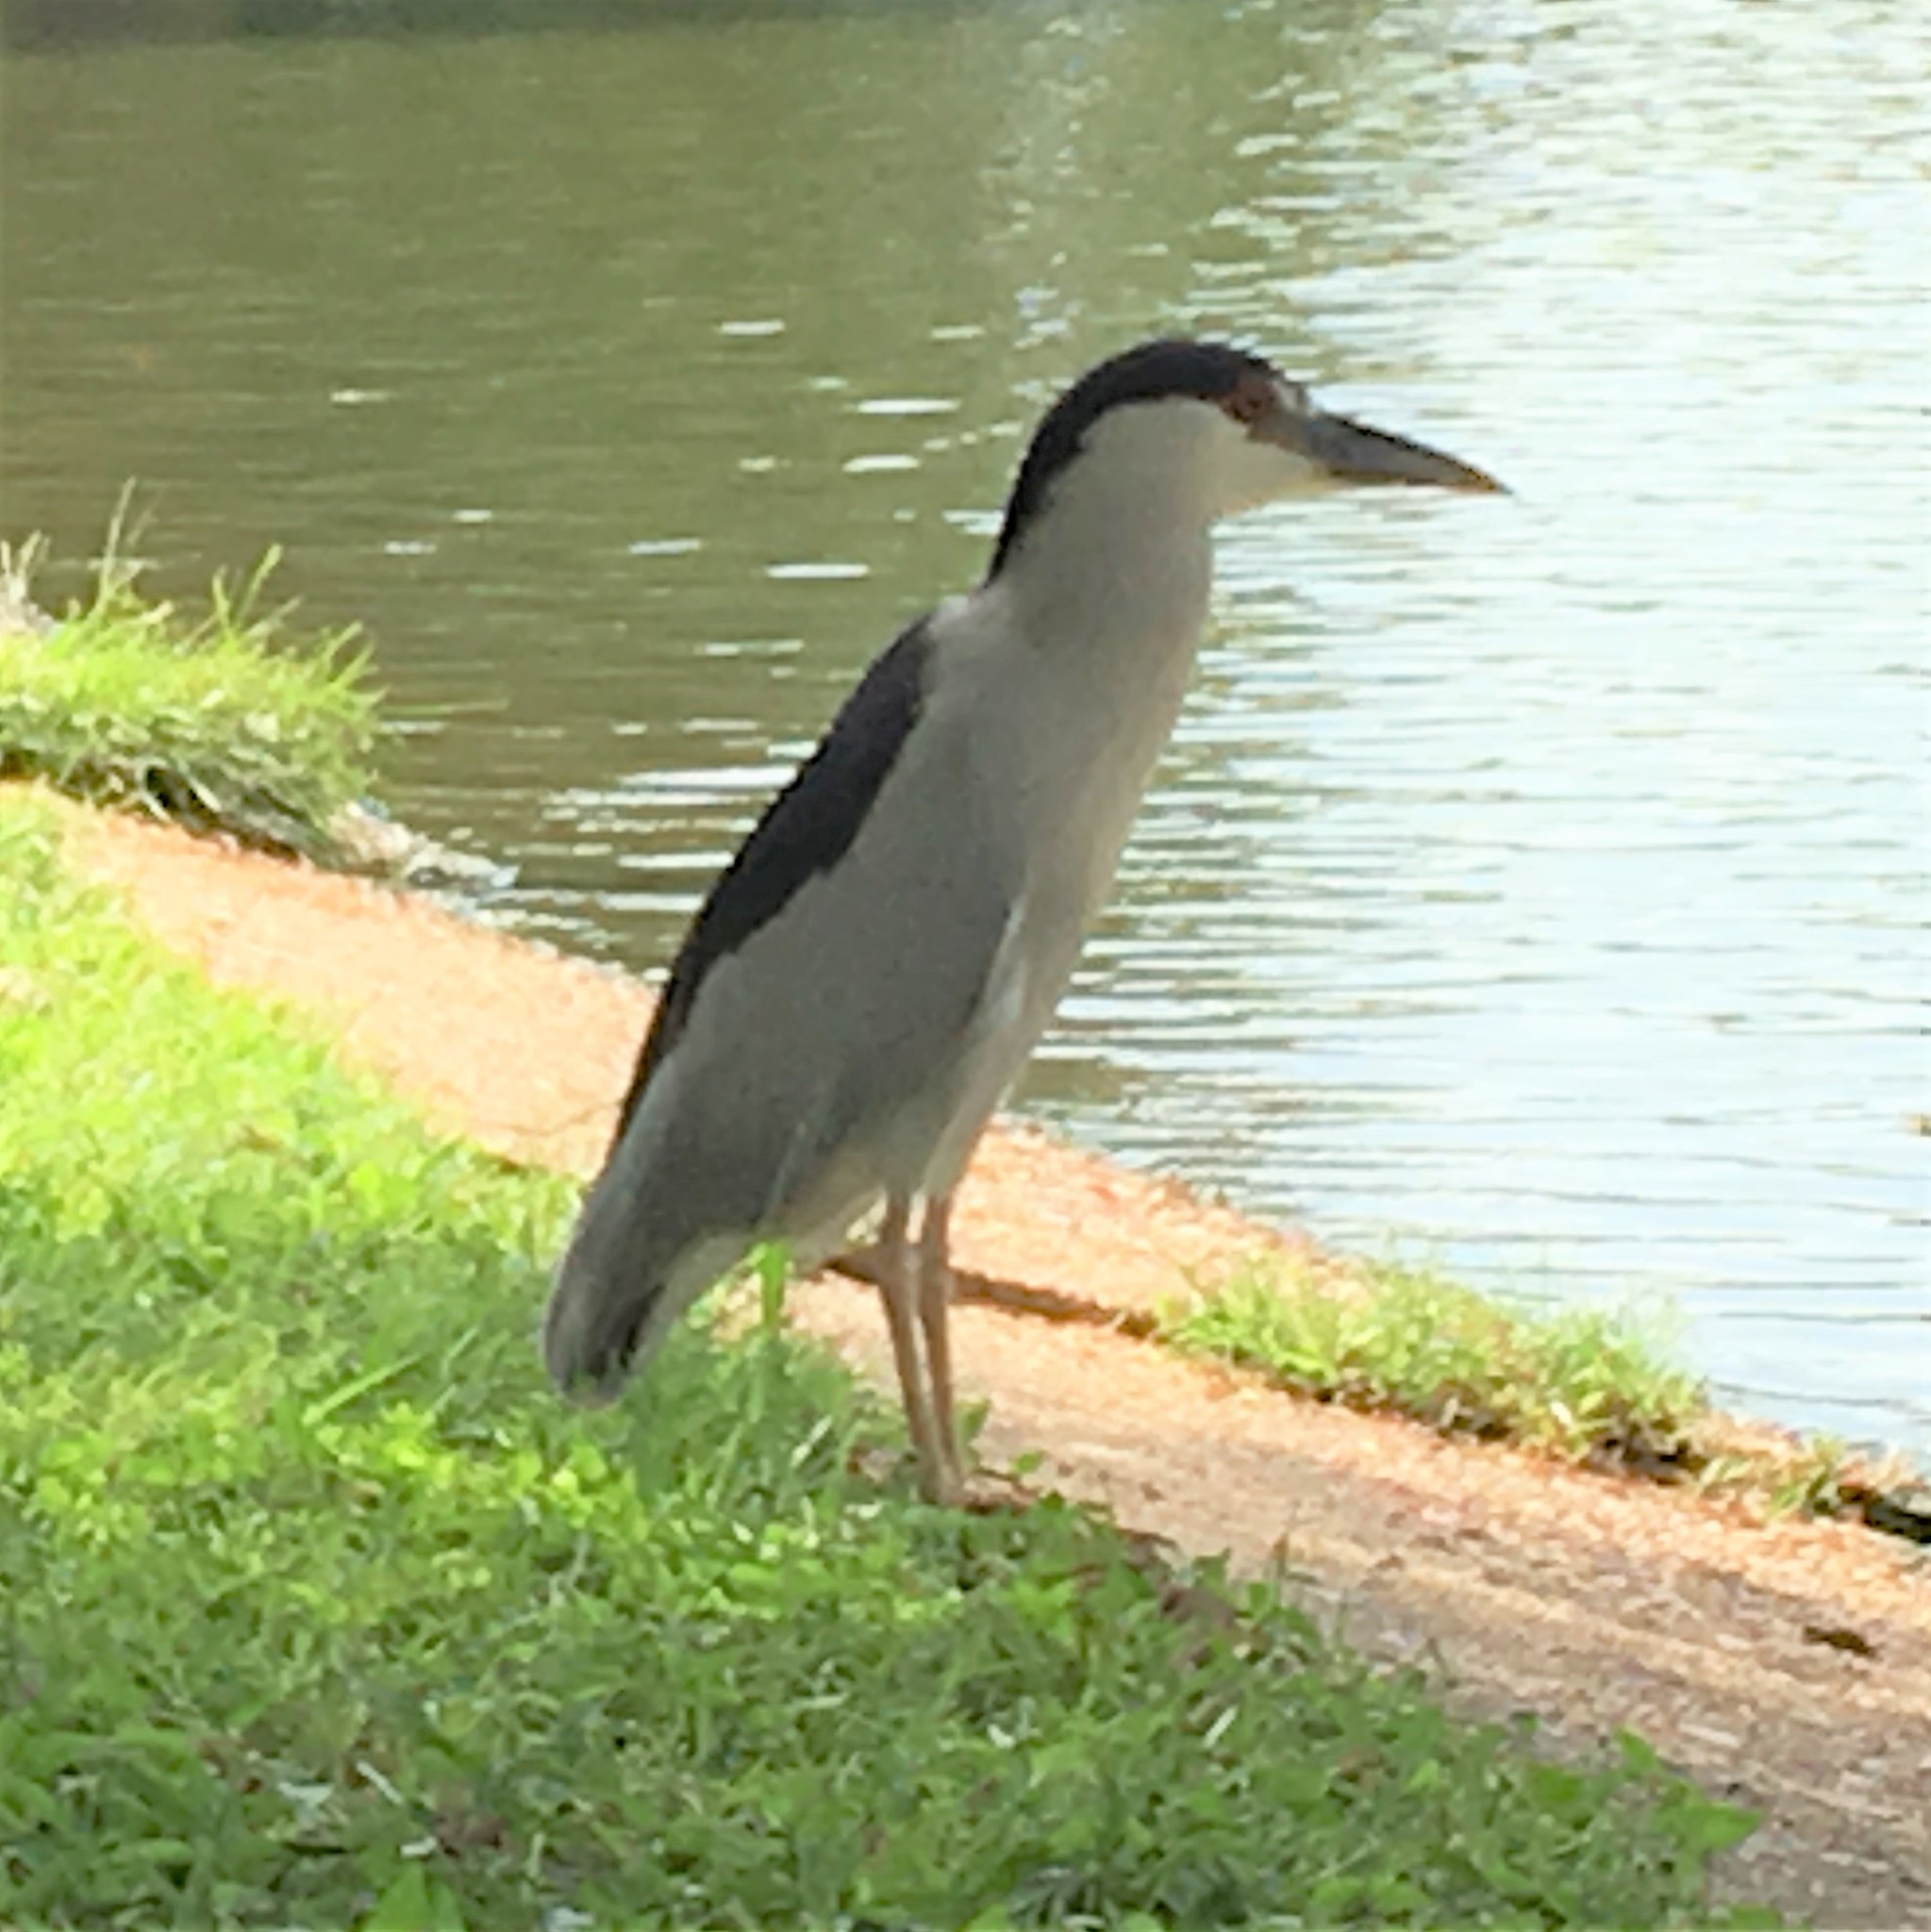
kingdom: Animalia
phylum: Chordata
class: Aves
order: Pelecaniformes
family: Ardeidae
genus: Nycticorax
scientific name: Nycticorax nycticorax
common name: Black-crowned night heron
